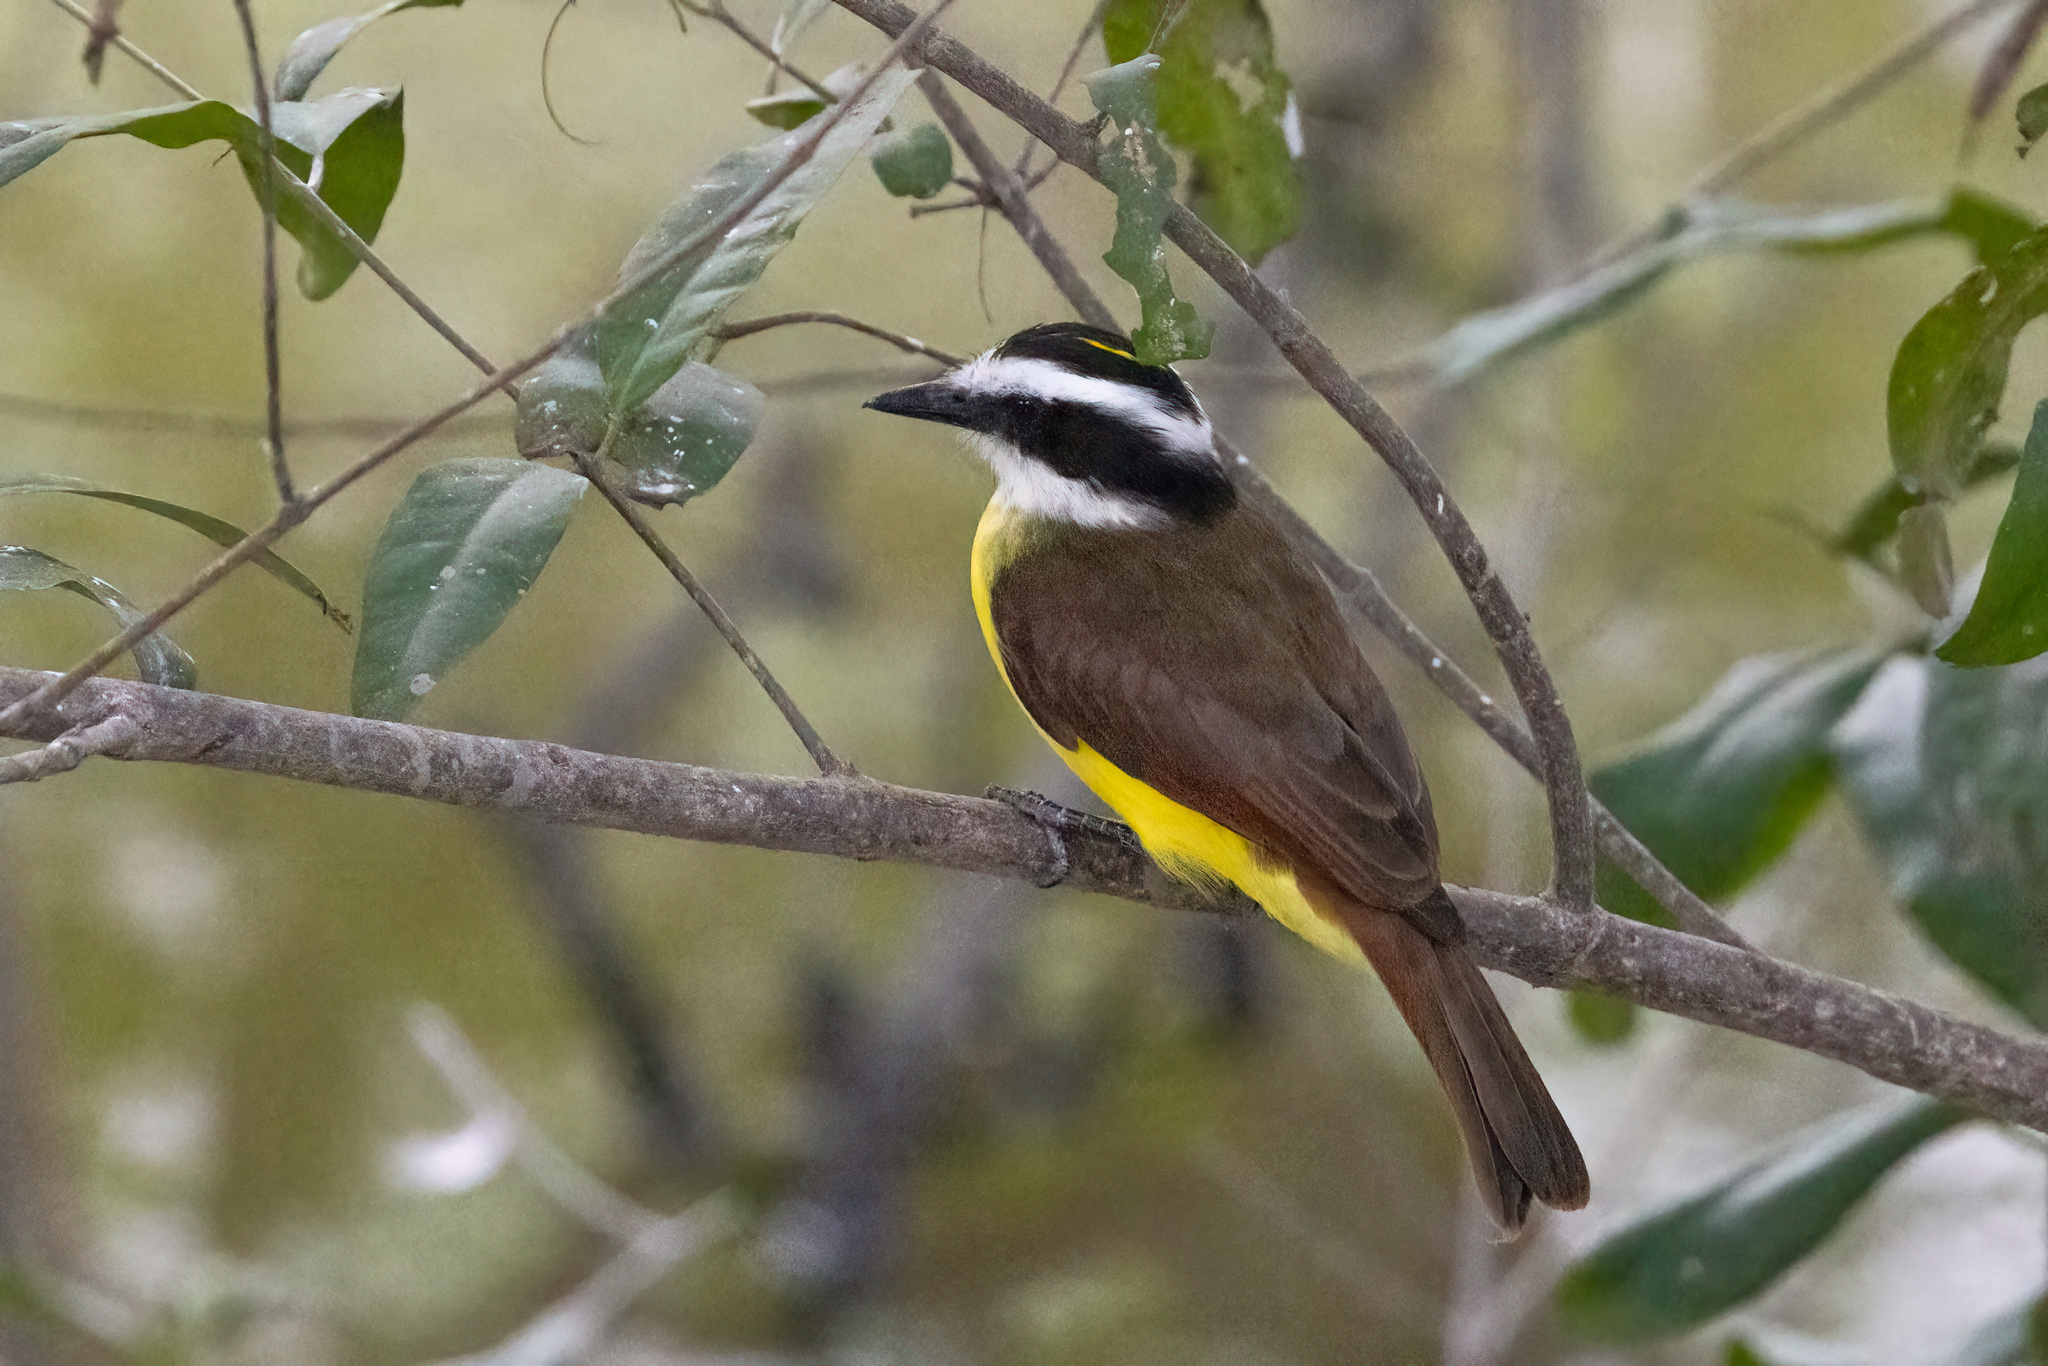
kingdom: Animalia
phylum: Chordata
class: Aves
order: Passeriformes
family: Tyrannidae
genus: Pitangus
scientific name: Pitangus sulphuratus
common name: Great kiskadee
